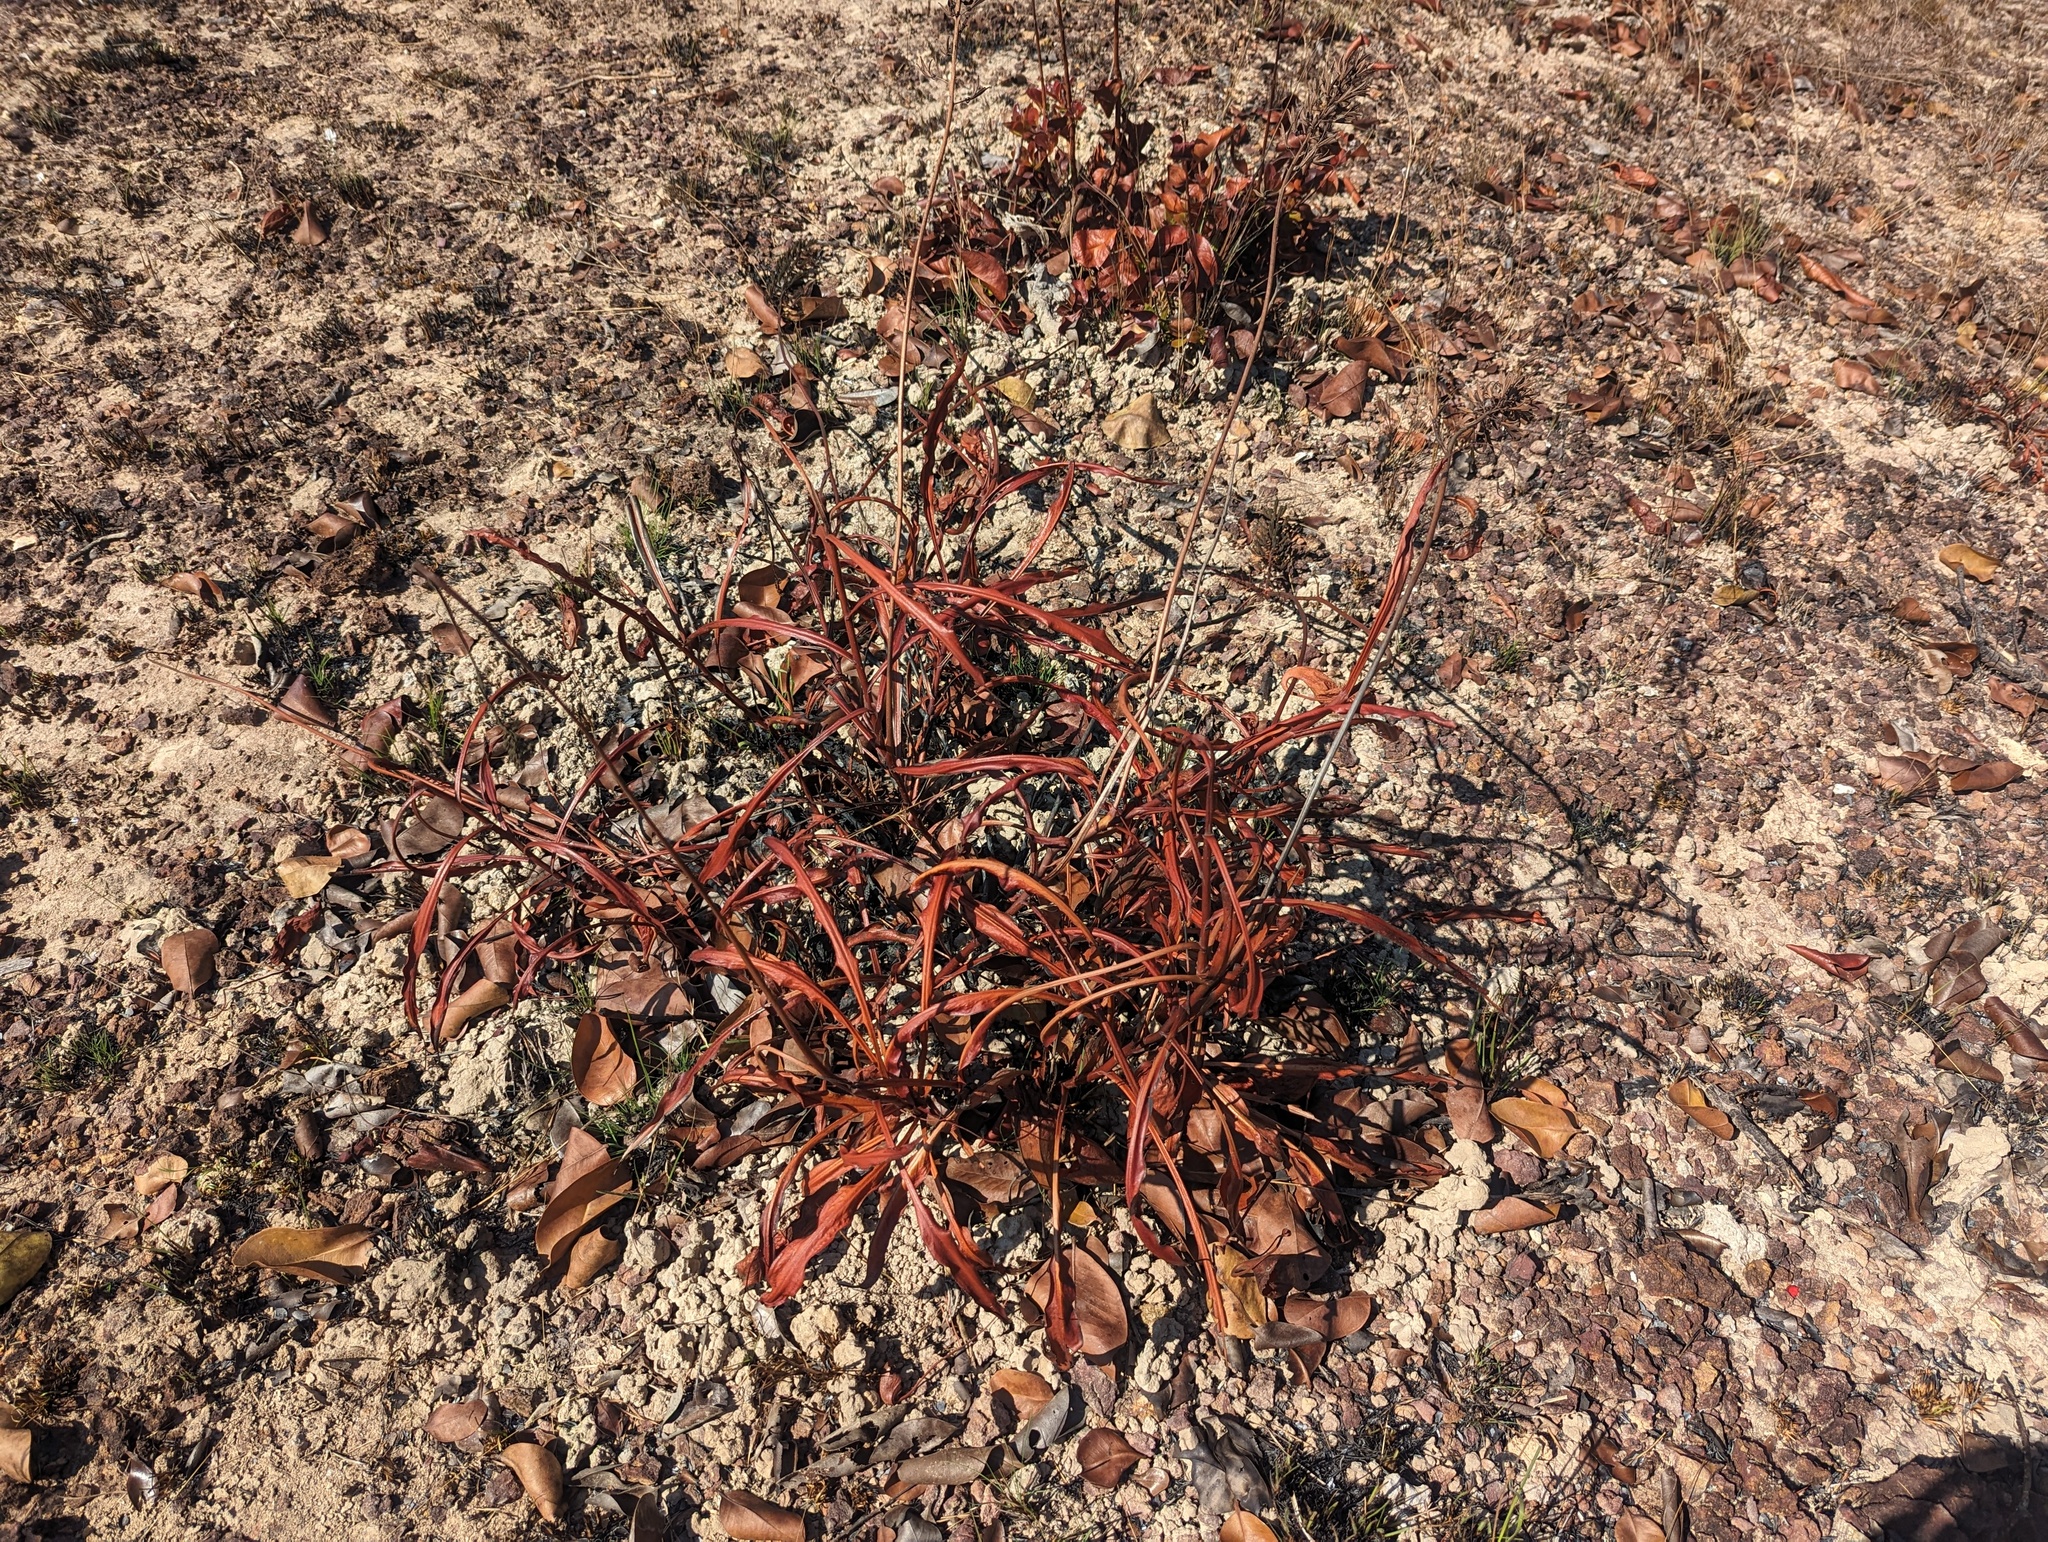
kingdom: Plantae
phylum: Tracheophyta
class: Magnoliopsida
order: Caryophyllales
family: Nepenthaceae
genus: Nepenthes
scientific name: Nepenthes abalata
